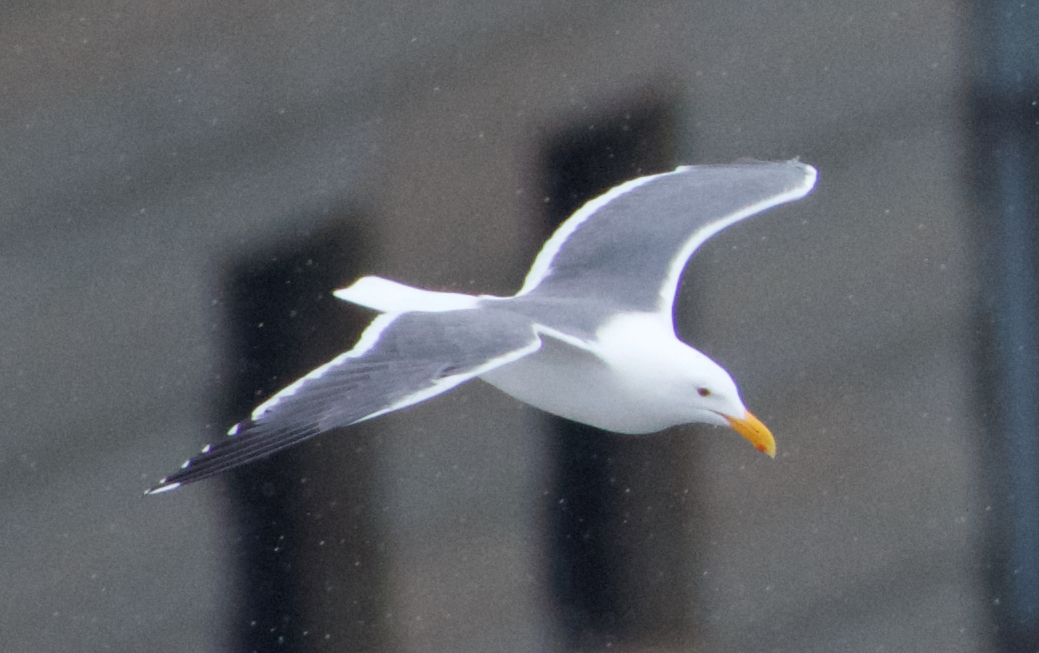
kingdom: Animalia
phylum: Chordata
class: Aves
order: Charadriiformes
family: Laridae
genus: Larus
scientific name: Larus occidentalis
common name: Western gull
